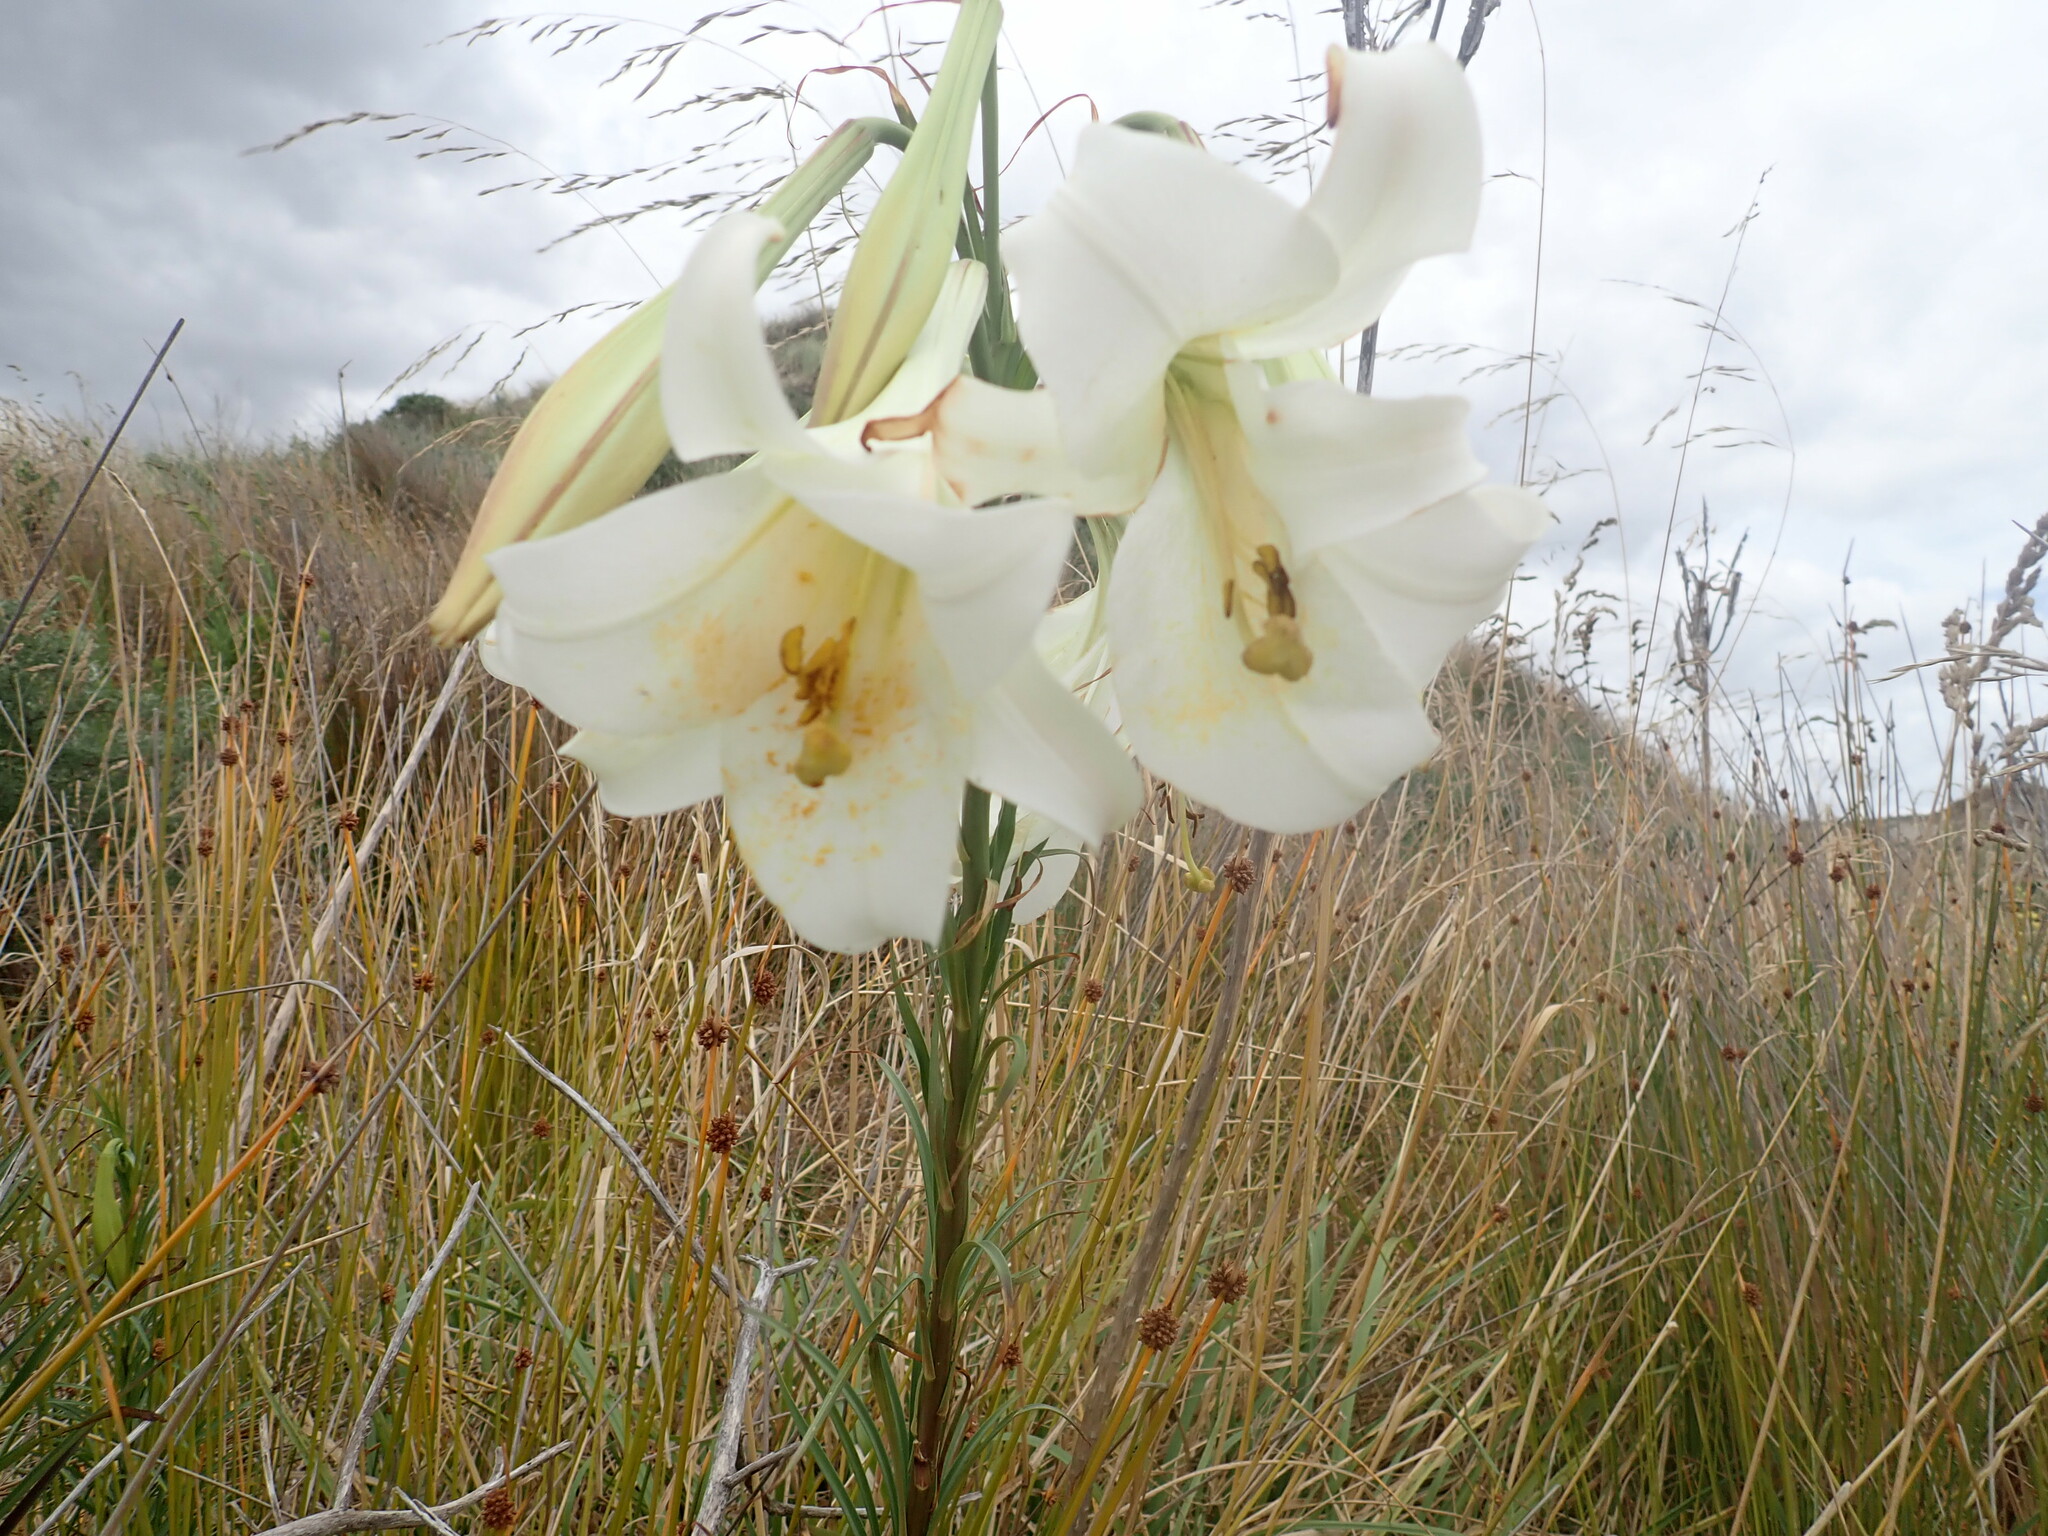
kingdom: Plantae
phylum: Tracheophyta
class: Liliopsida
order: Liliales
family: Liliaceae
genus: Lilium
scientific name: Lilium formosanum
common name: Formosa lily
